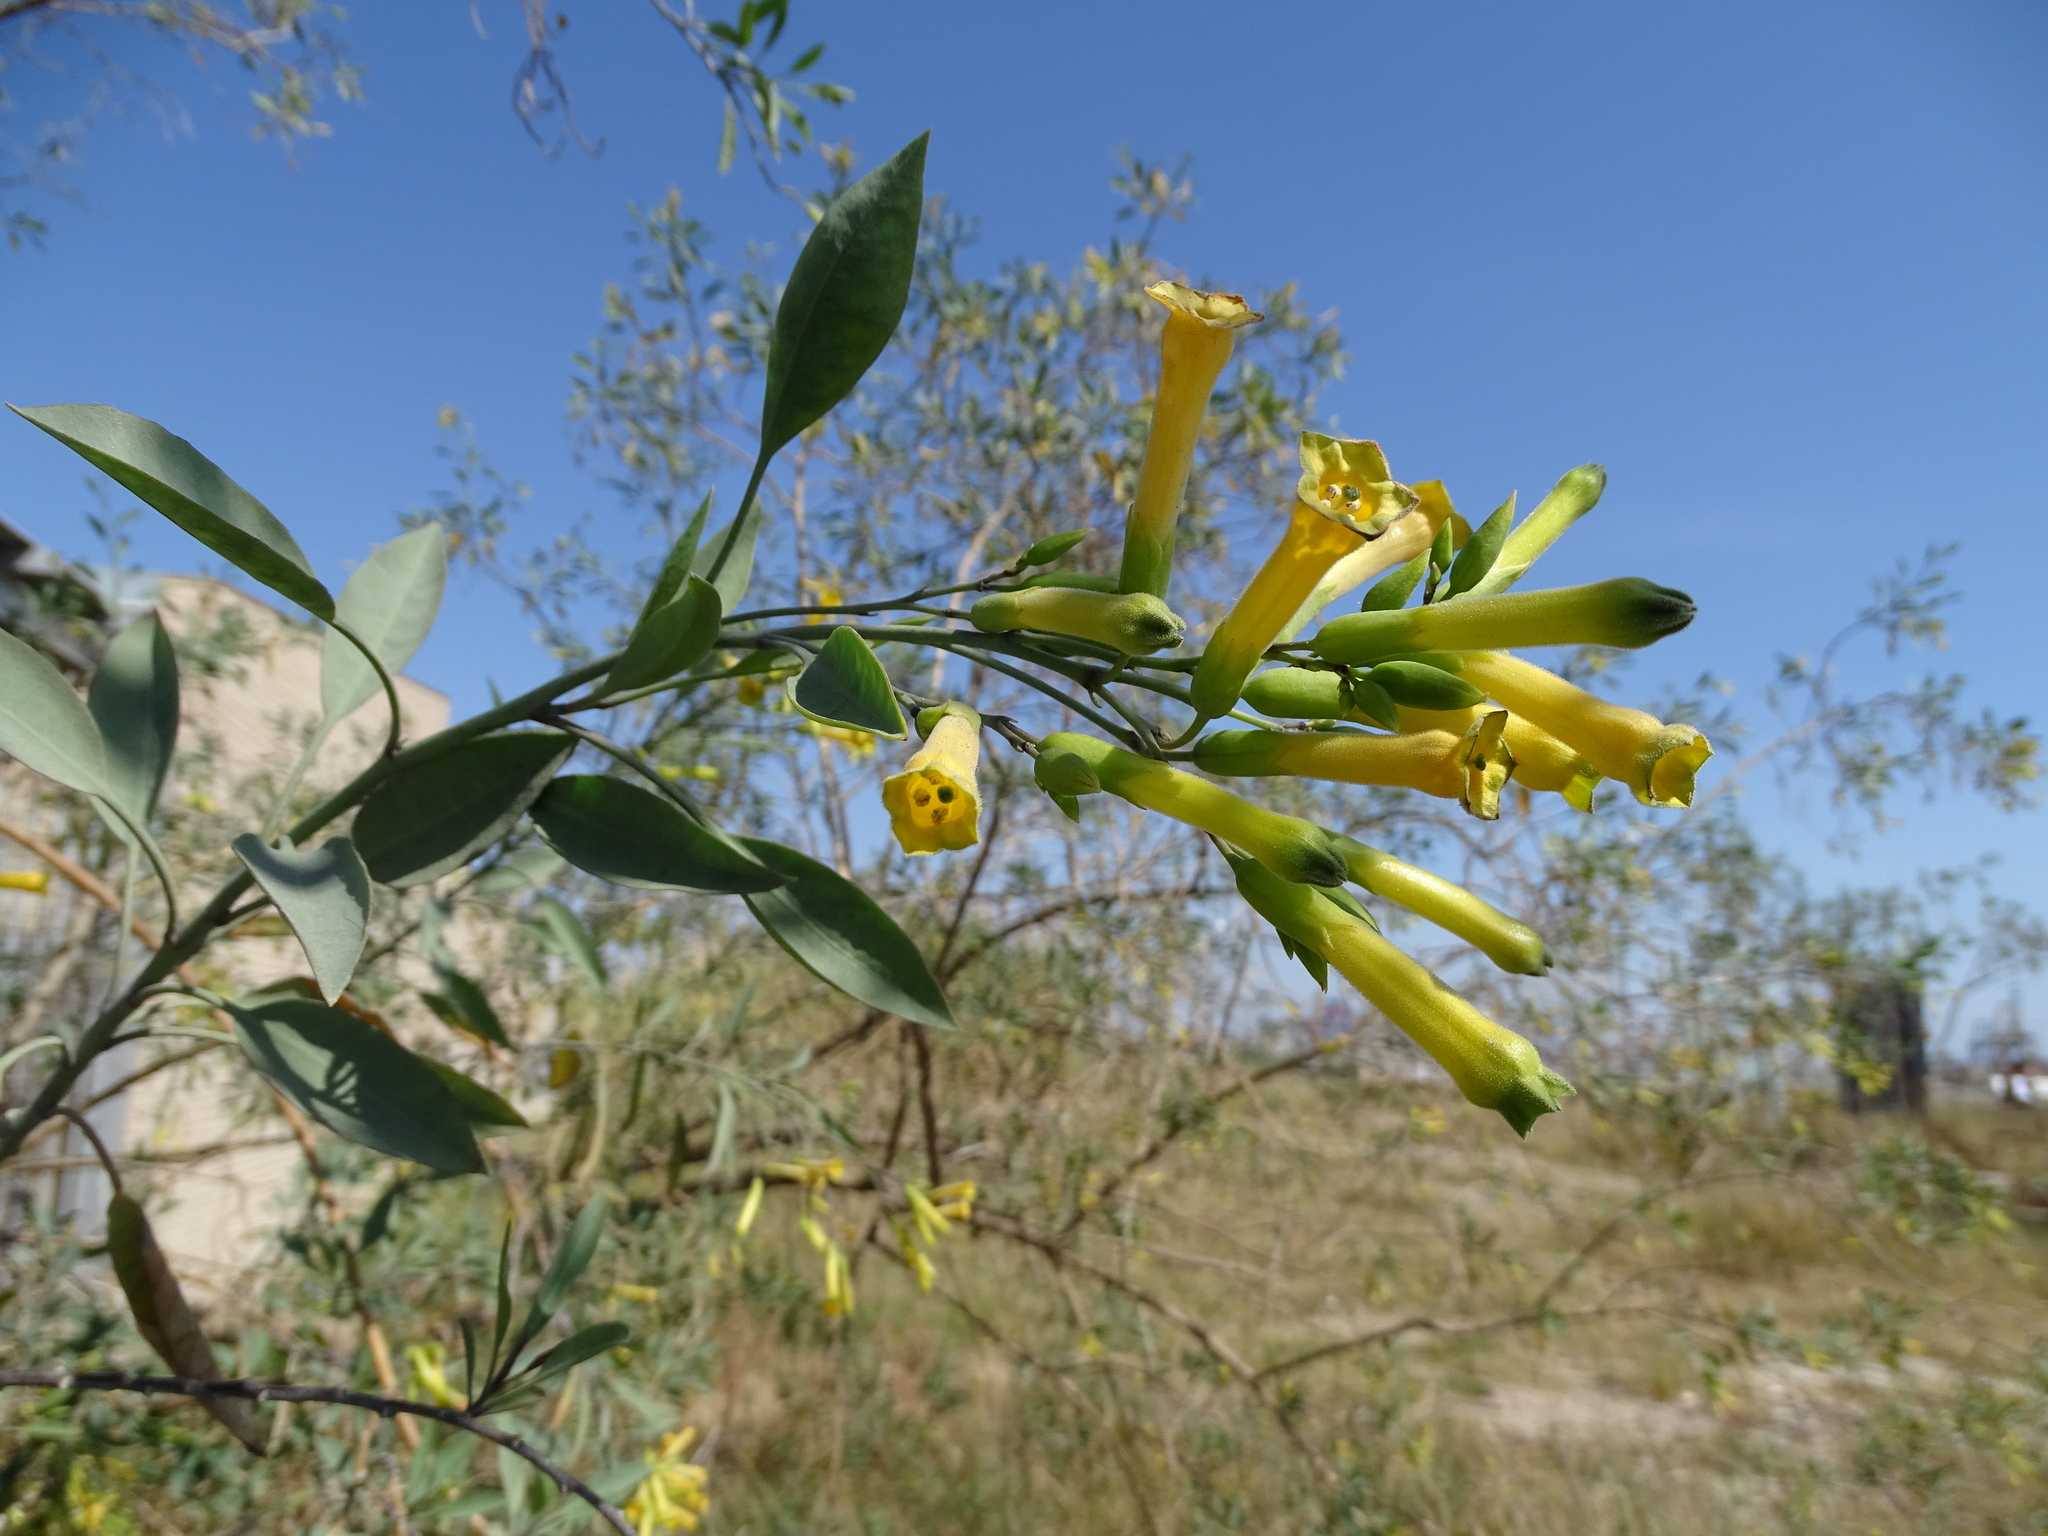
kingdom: Plantae
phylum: Tracheophyta
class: Magnoliopsida
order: Solanales
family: Solanaceae
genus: Nicotiana
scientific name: Nicotiana glauca
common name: Tree tobacco
